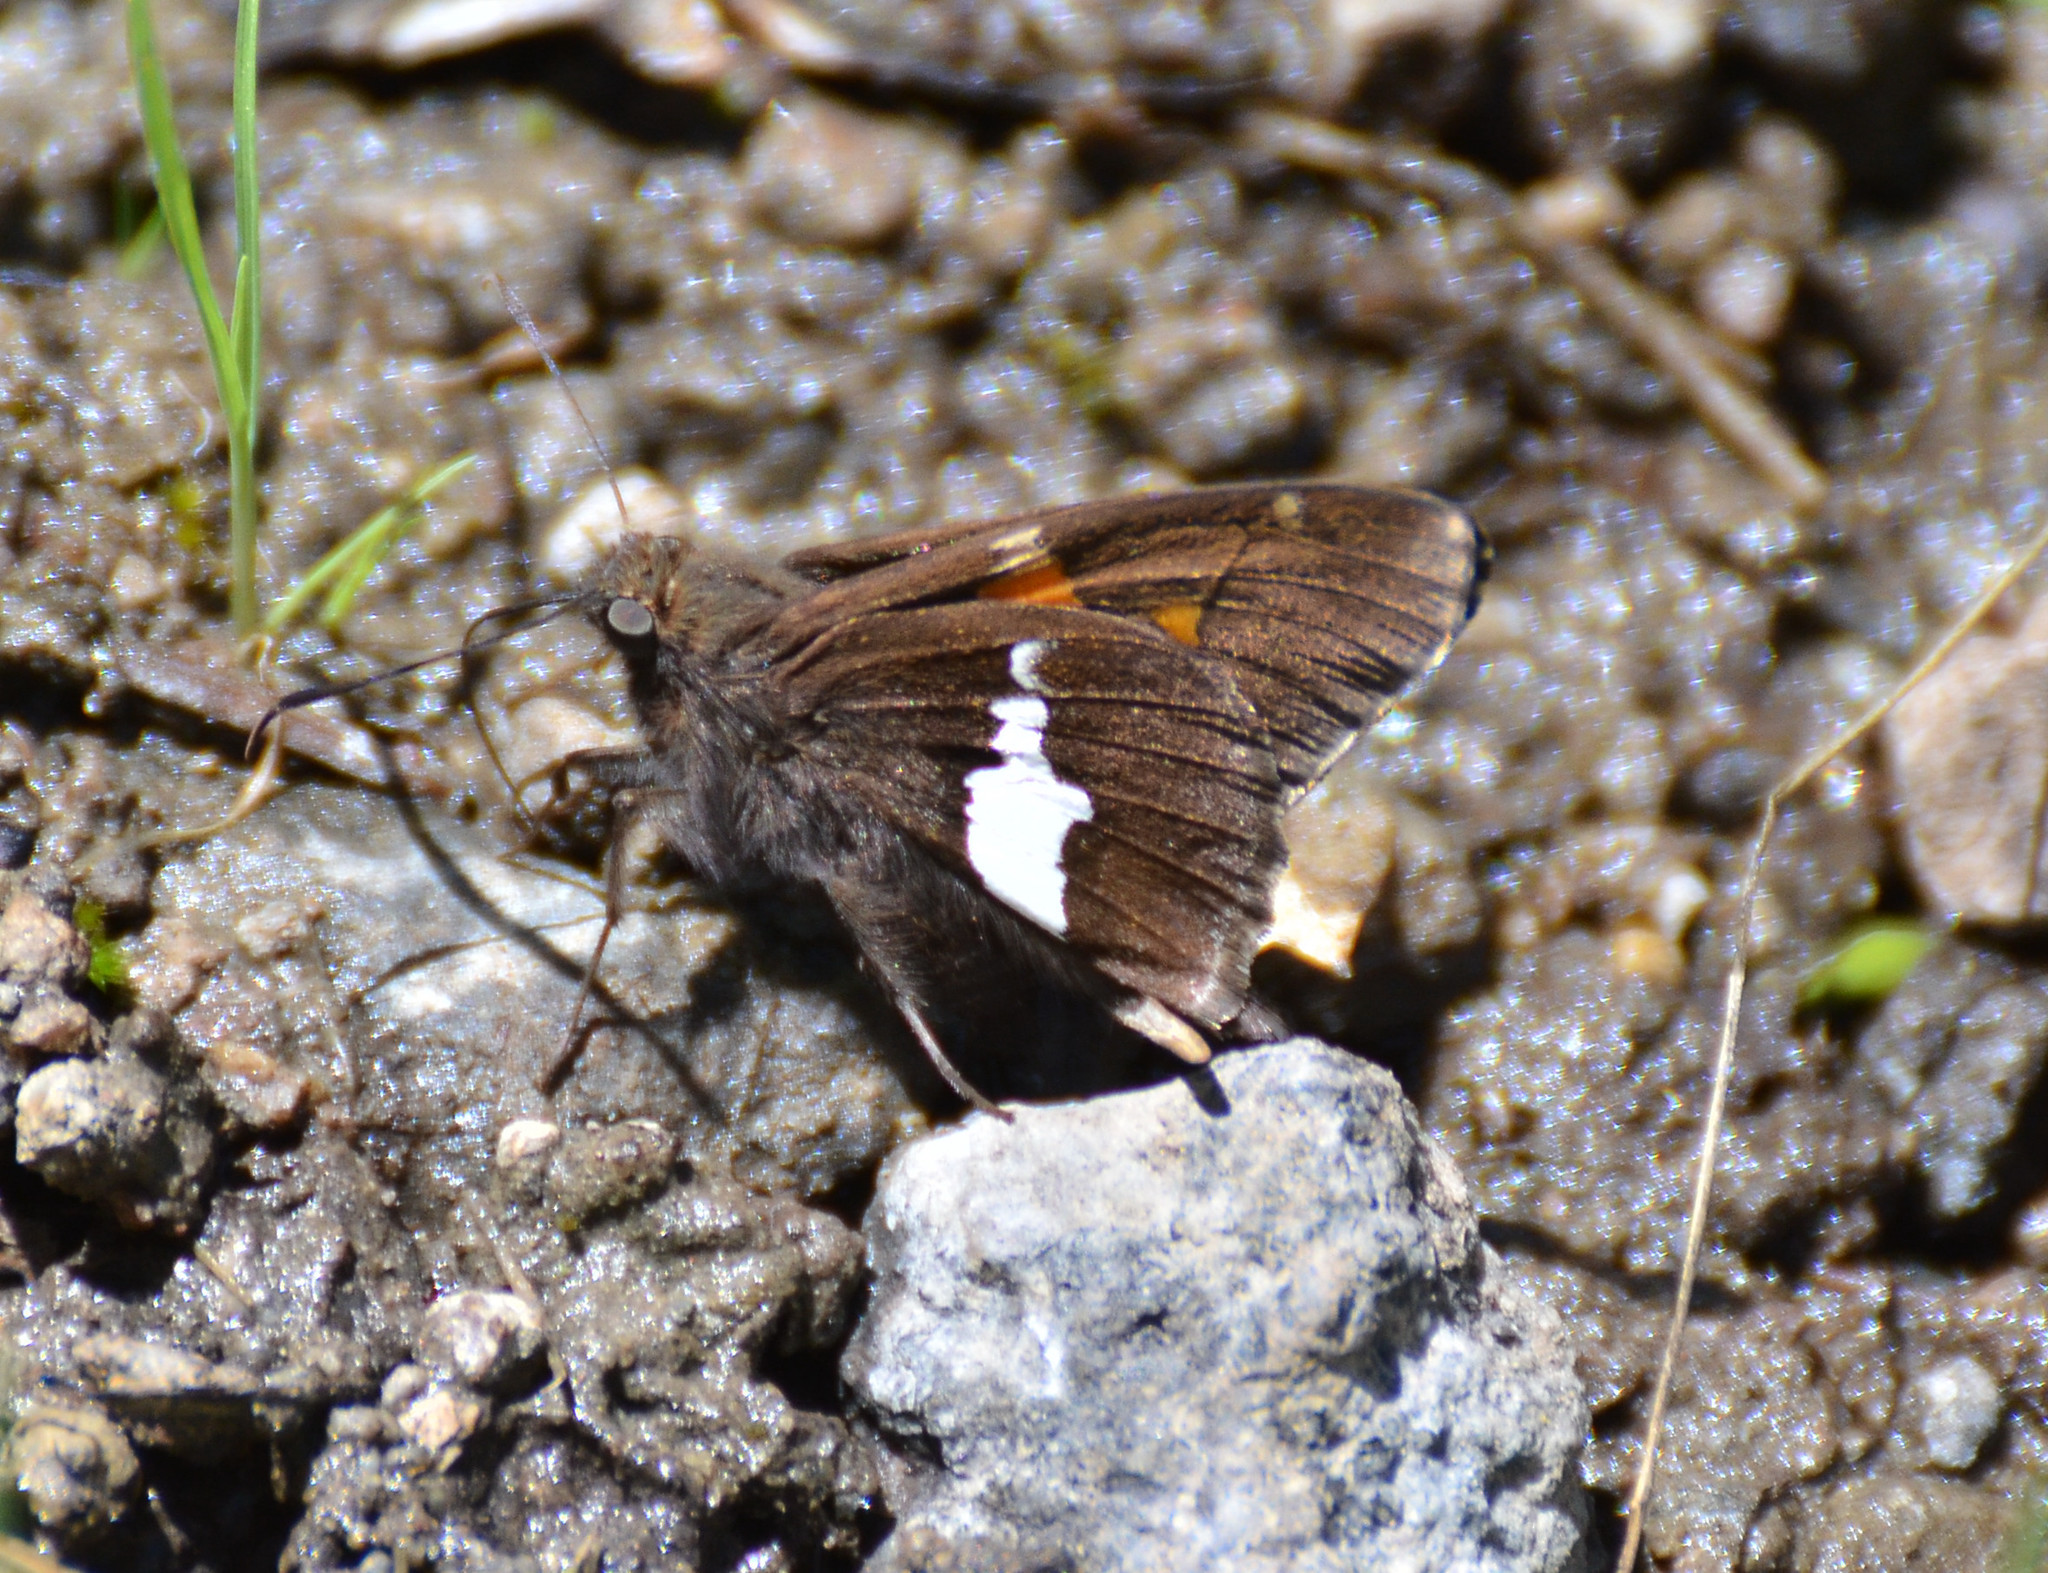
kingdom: Animalia
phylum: Arthropoda
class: Insecta
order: Lepidoptera
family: Hesperiidae
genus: Epargyreus
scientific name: Epargyreus clarus
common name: Silver-spotted skipper
